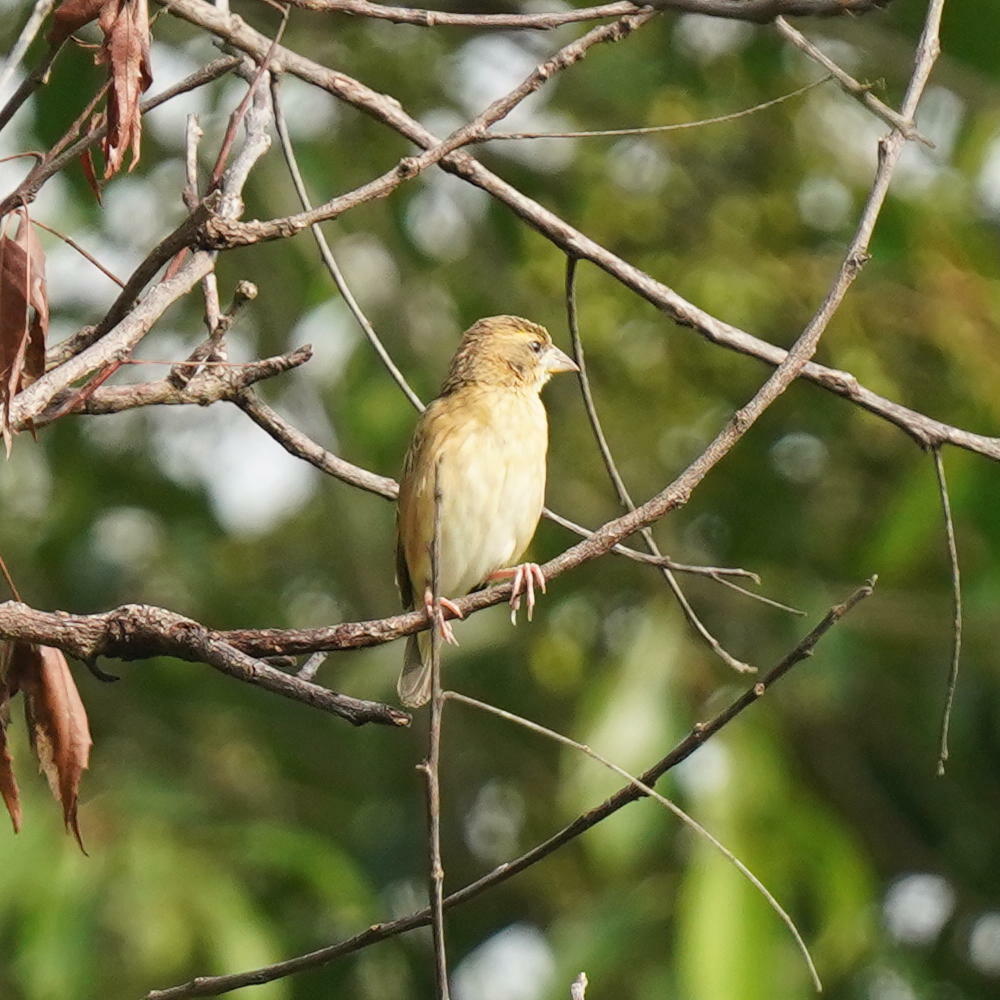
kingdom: Animalia
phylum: Chordata
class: Aves
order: Passeriformes
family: Ploceidae
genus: Ploceus
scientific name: Ploceus philippinus
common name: Baya weaver
